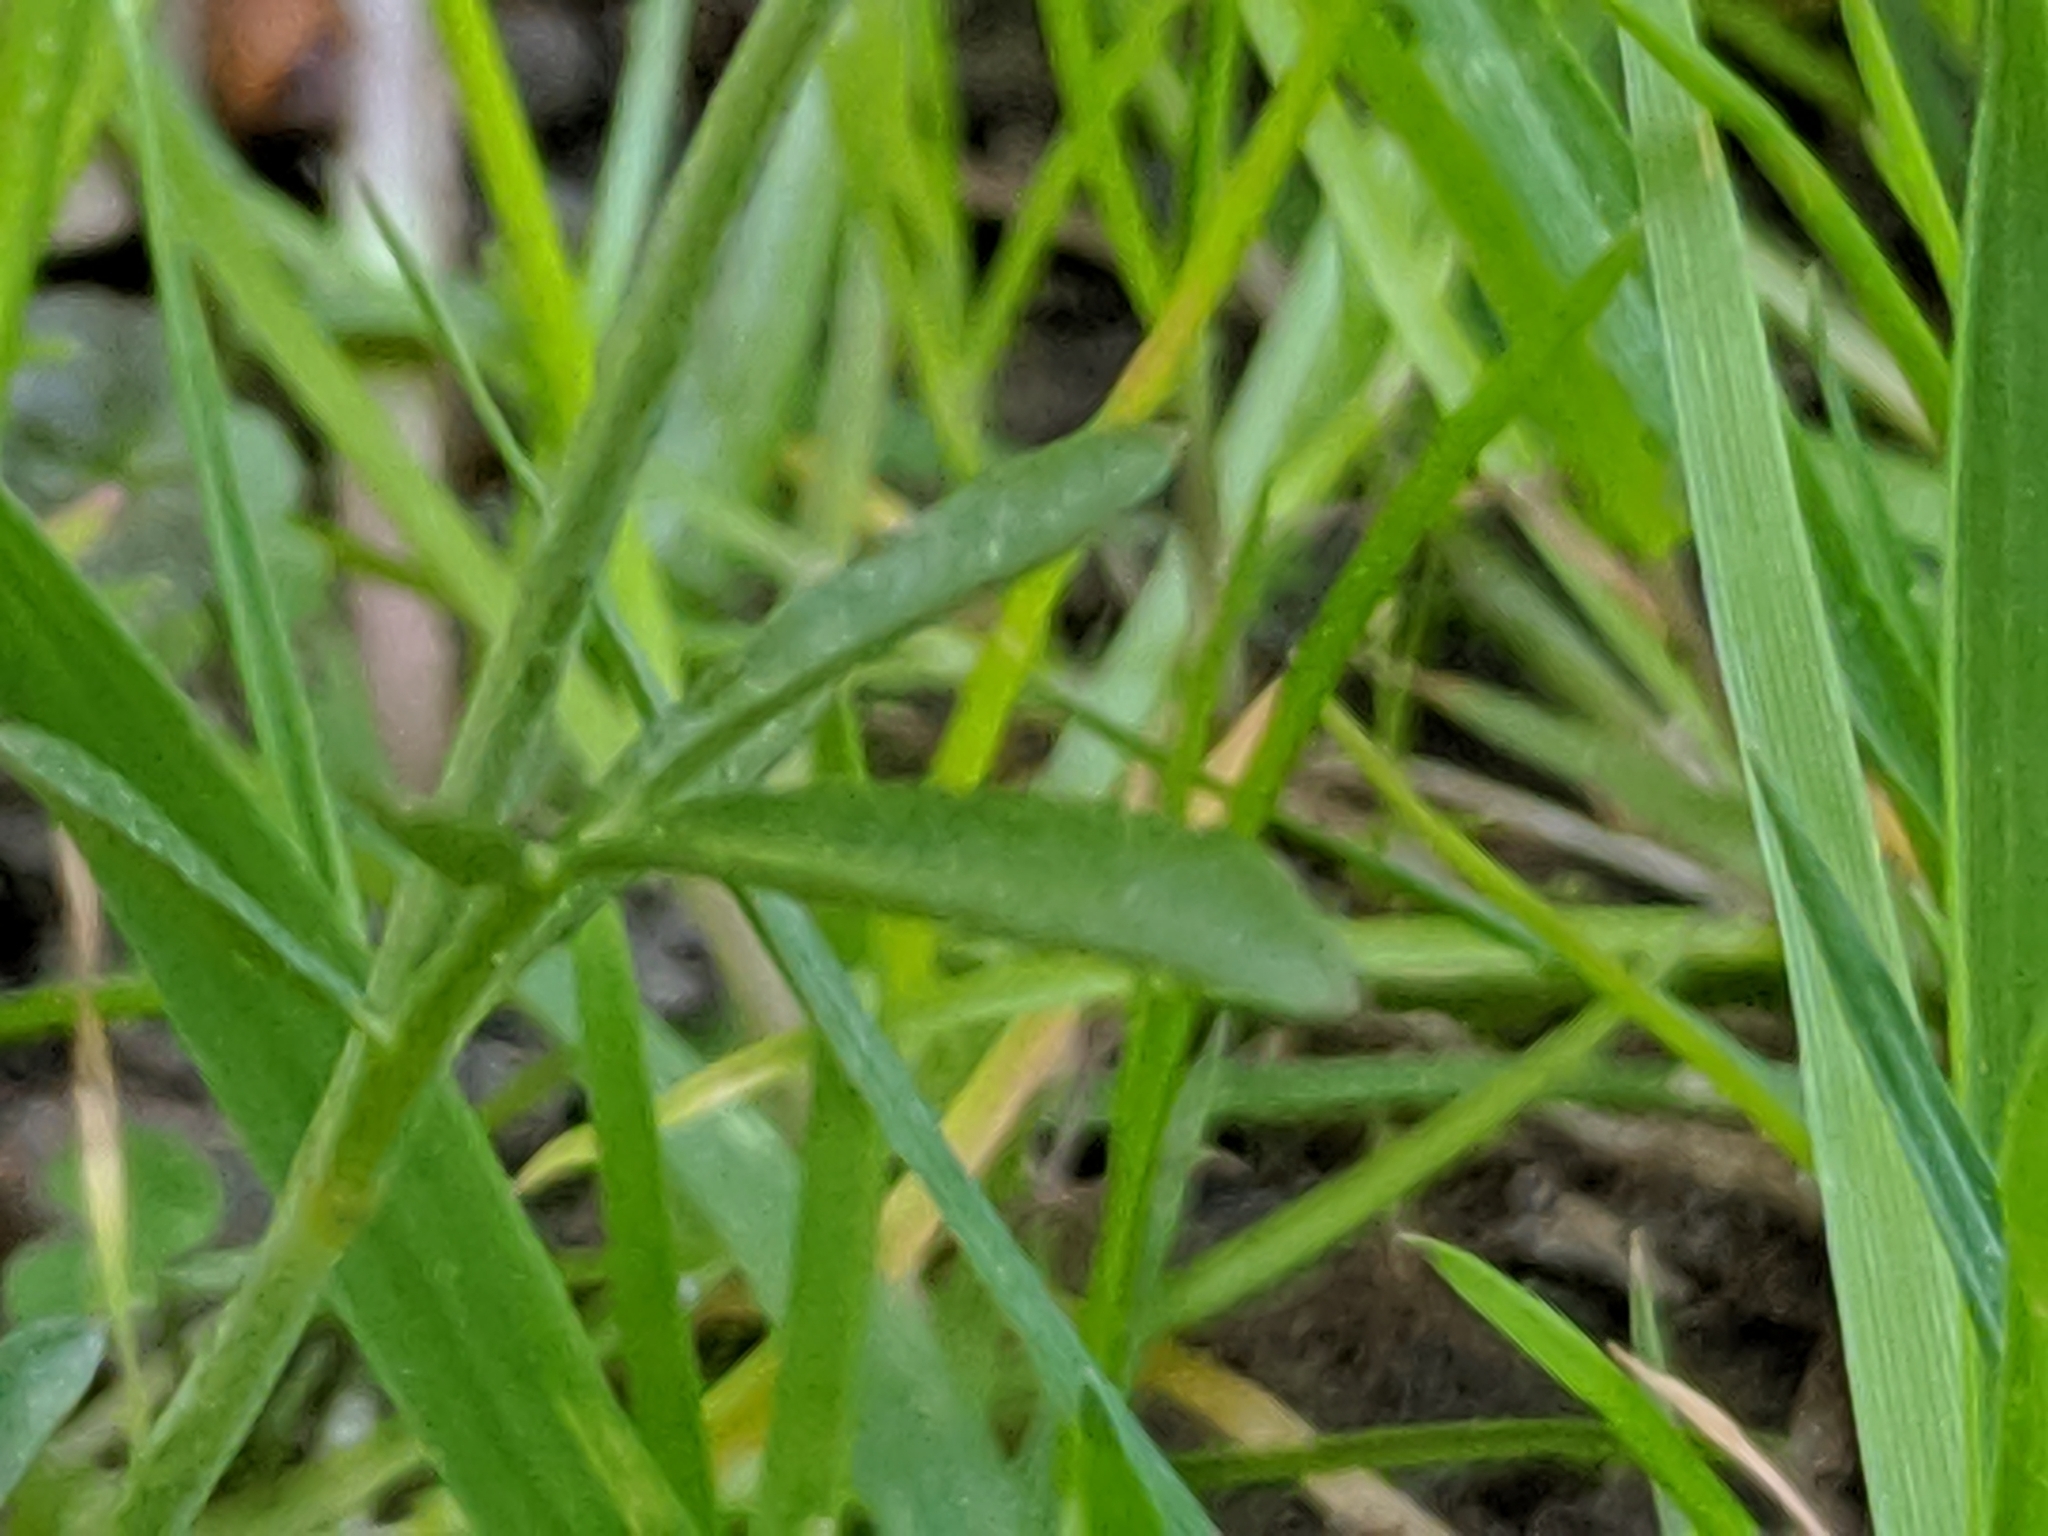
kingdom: Plantae
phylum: Tracheophyta
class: Magnoliopsida
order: Brassicales
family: Brassicaceae
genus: Cardamine
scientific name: Cardamine pratensis
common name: Cuckoo flower
